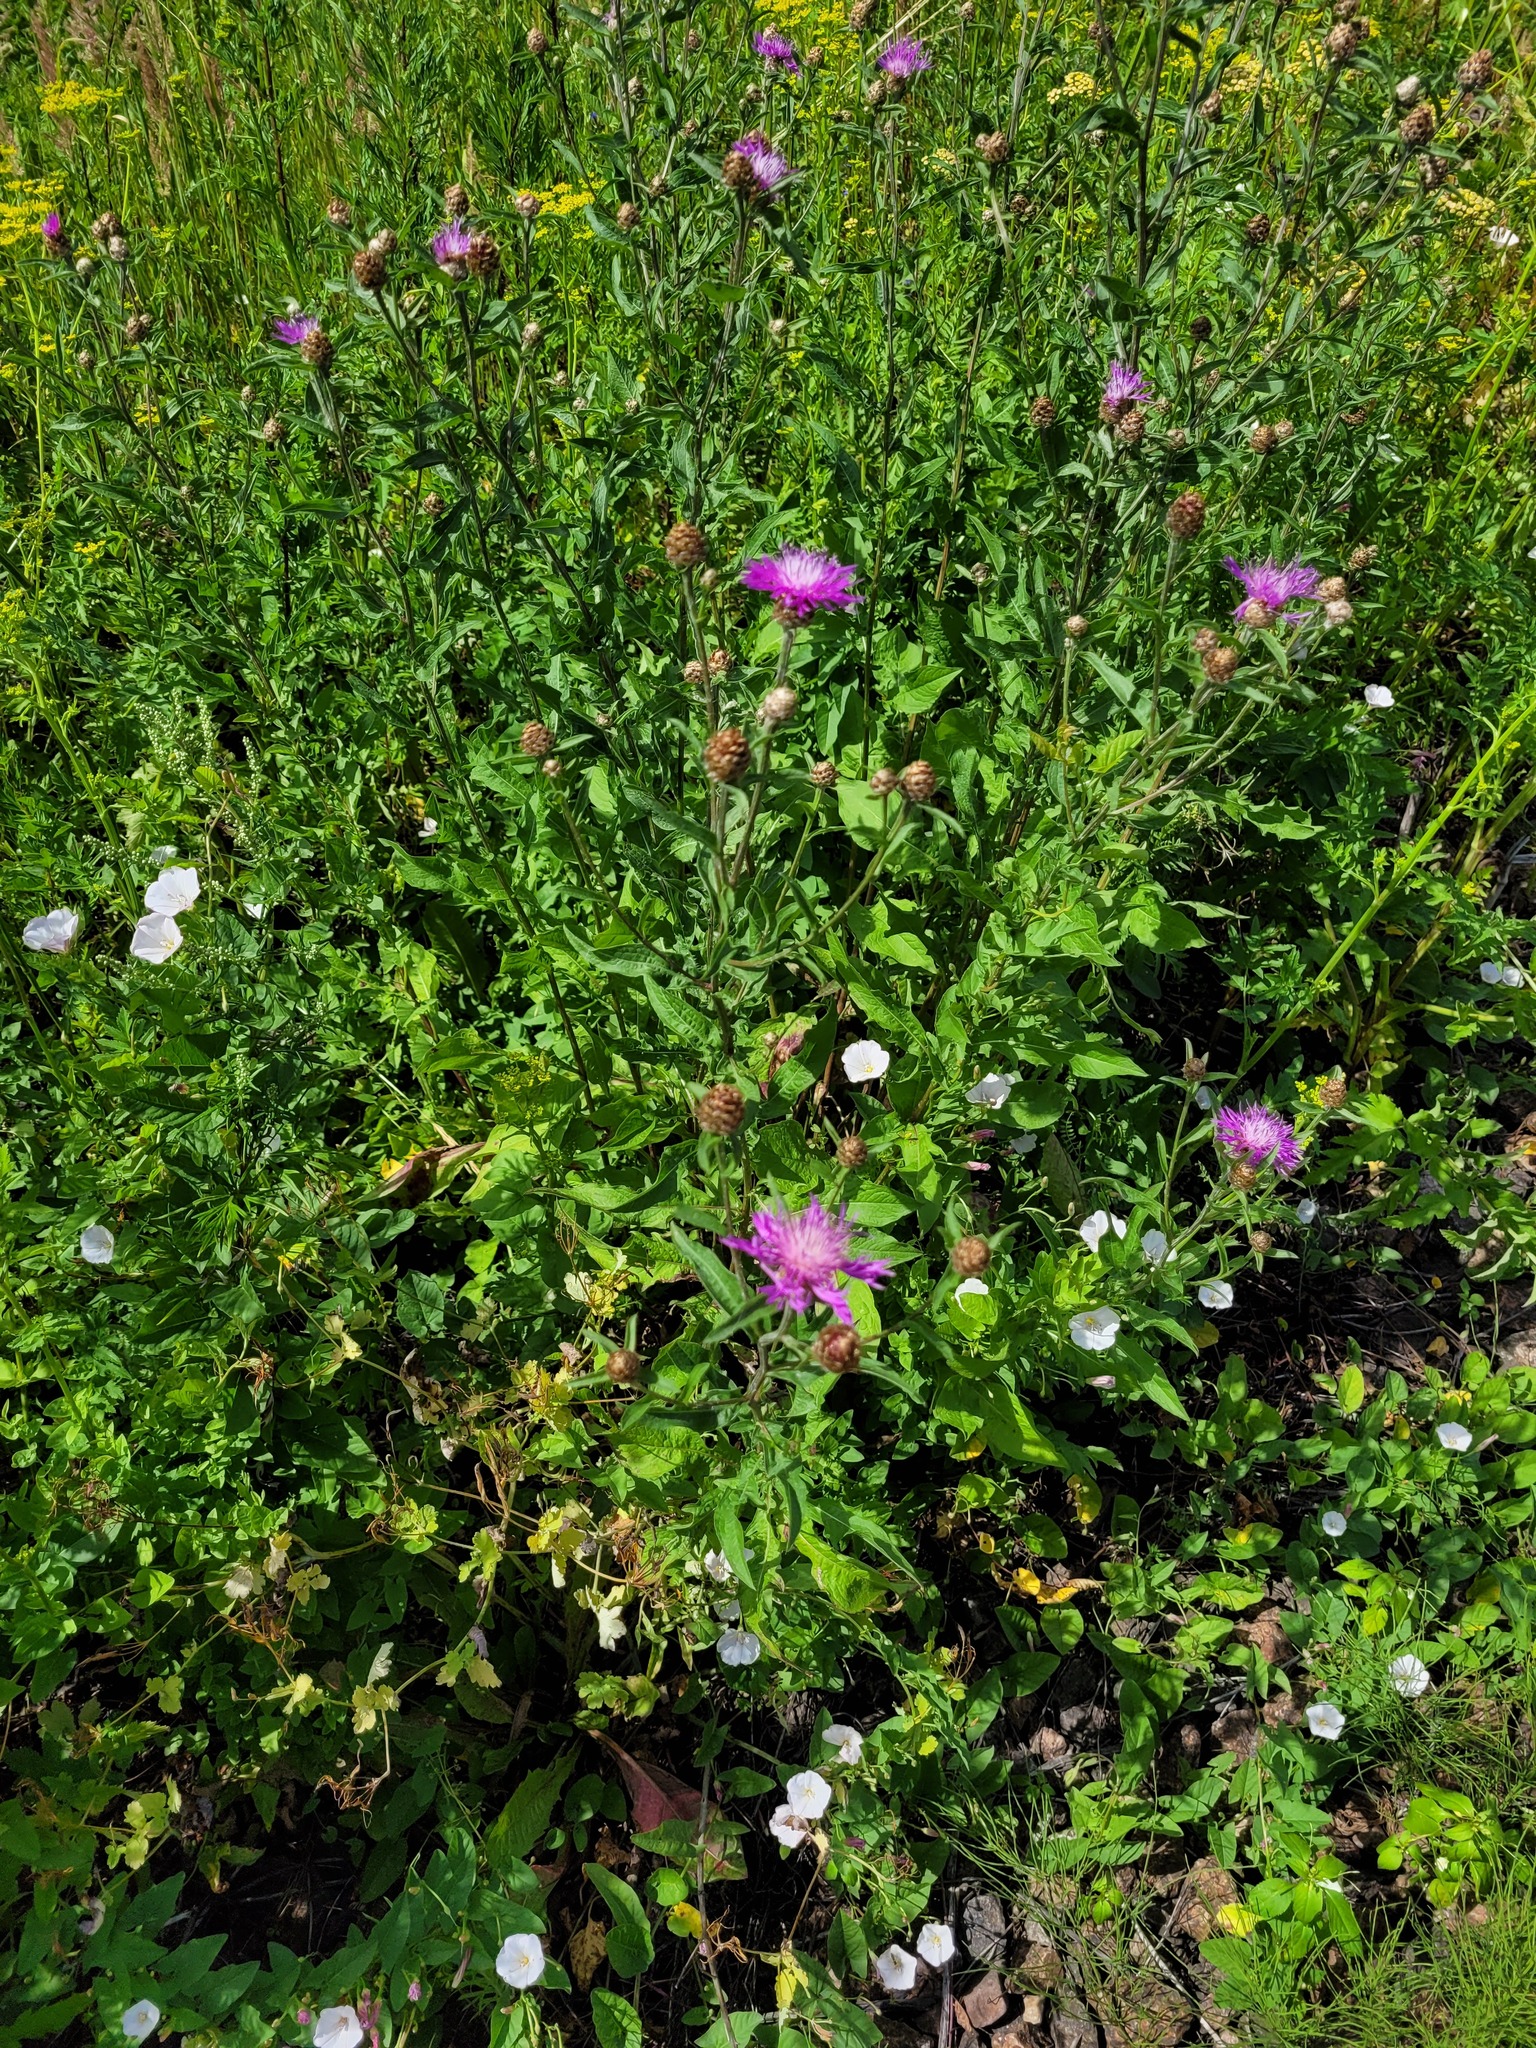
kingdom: Plantae
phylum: Tracheophyta
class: Magnoliopsida
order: Asterales
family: Asteraceae
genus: Centaurea
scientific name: Centaurea jacea
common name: Brown knapweed
